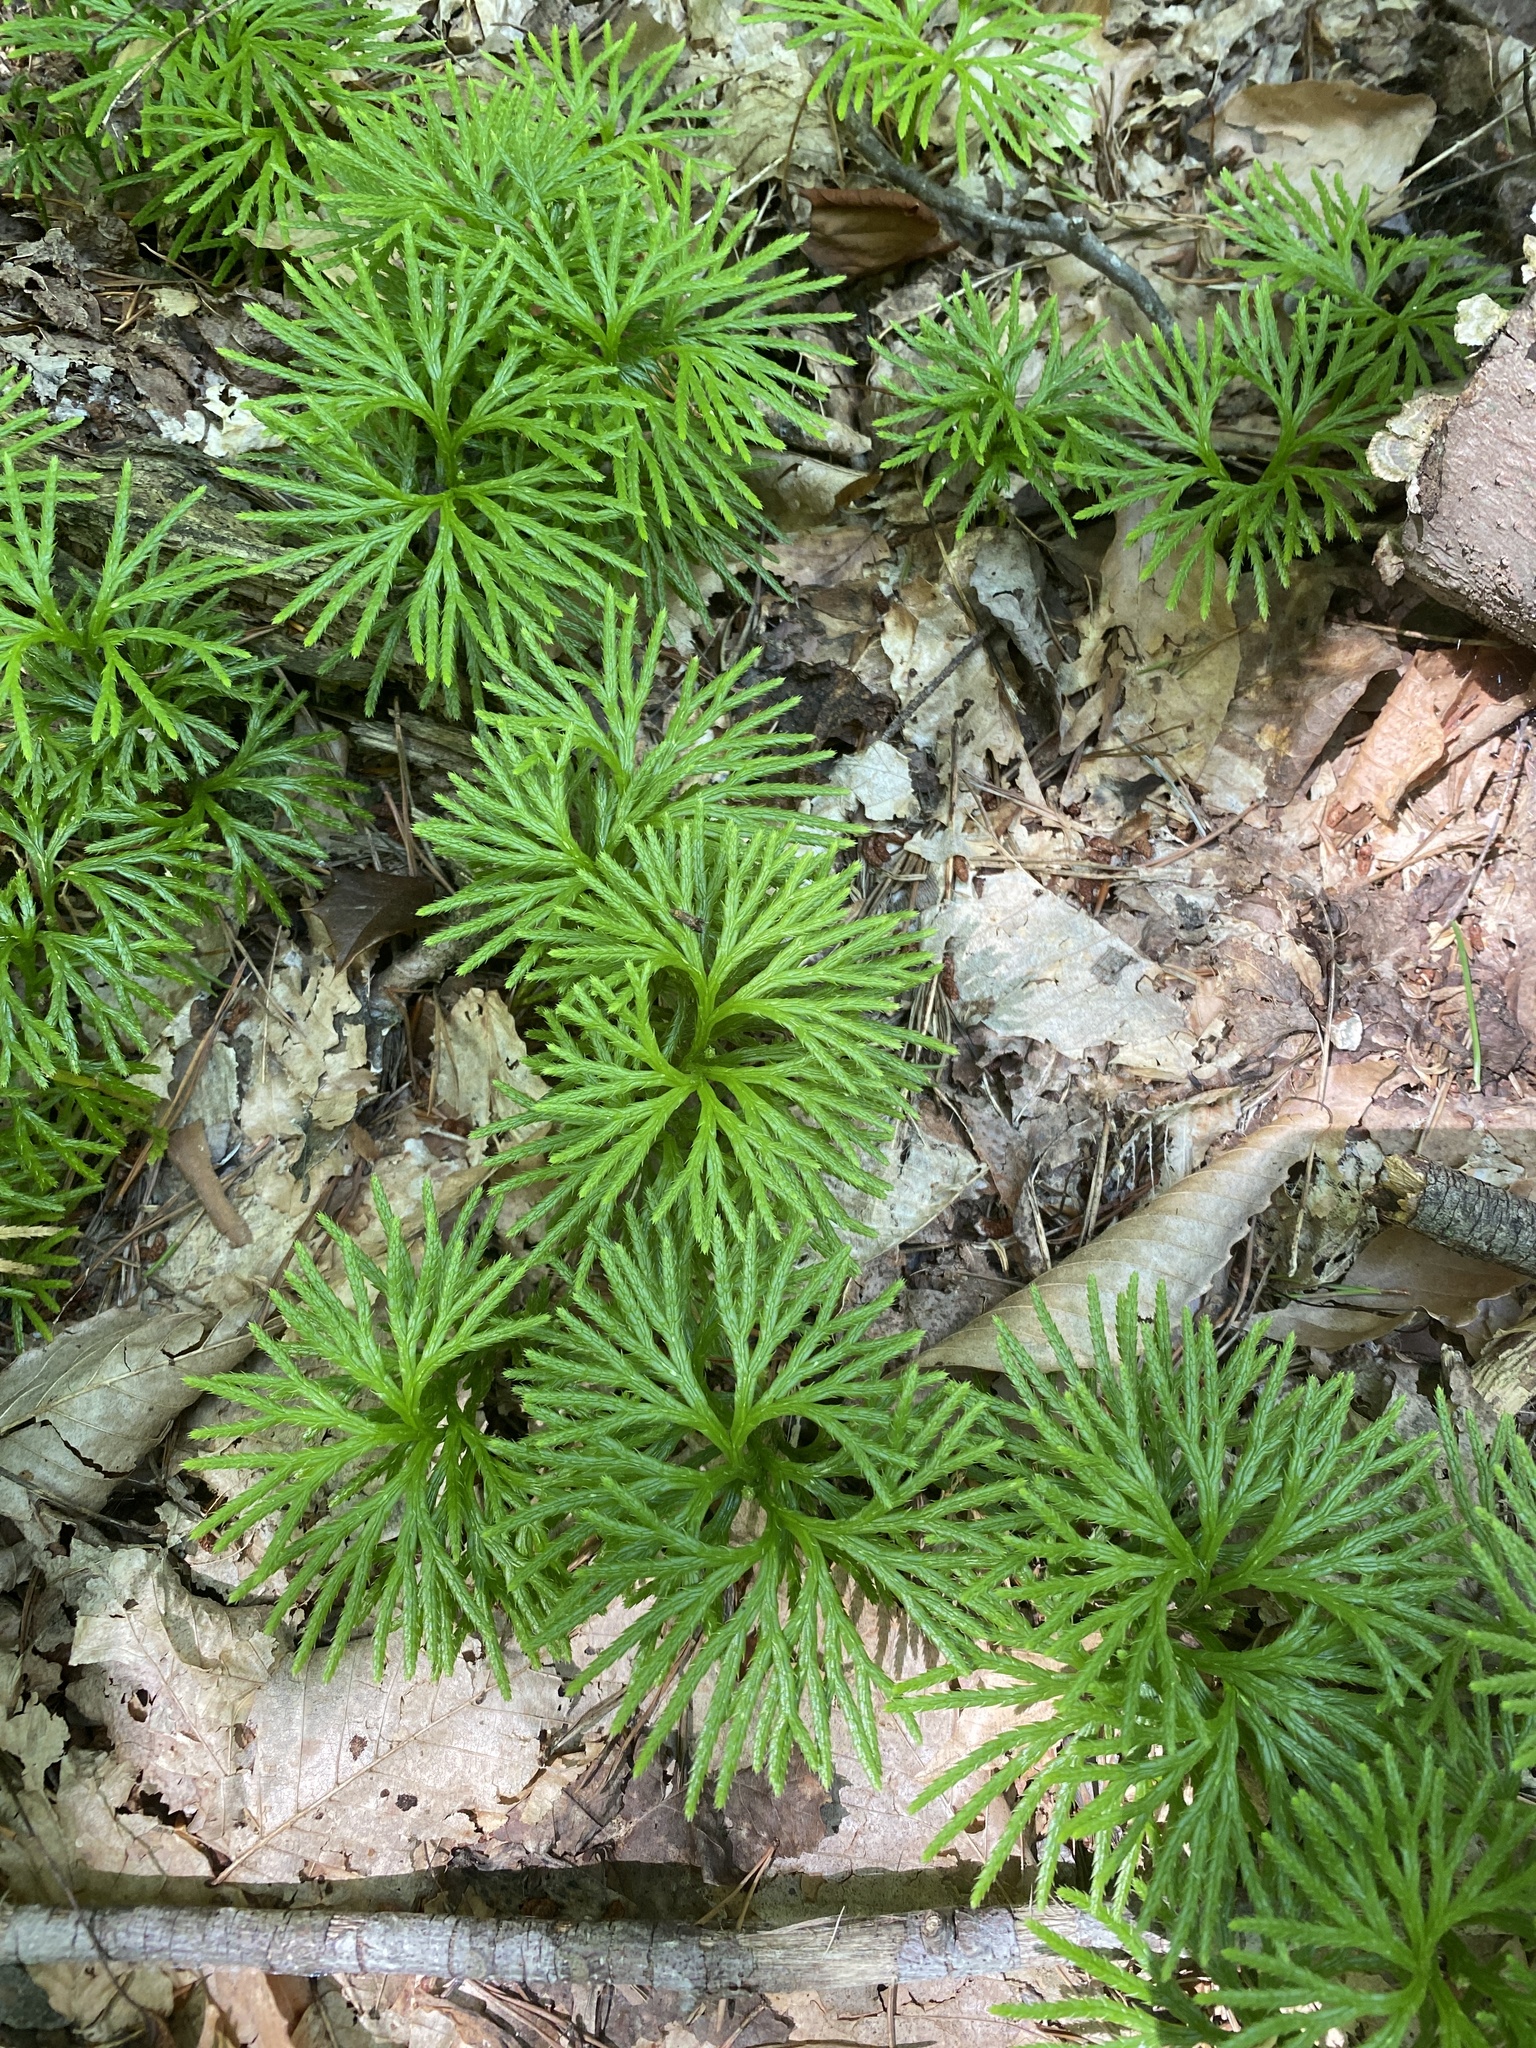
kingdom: Plantae
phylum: Tracheophyta
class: Lycopodiopsida
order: Lycopodiales
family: Lycopodiaceae
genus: Diphasiastrum
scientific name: Diphasiastrum digitatum
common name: Southern running-pine
